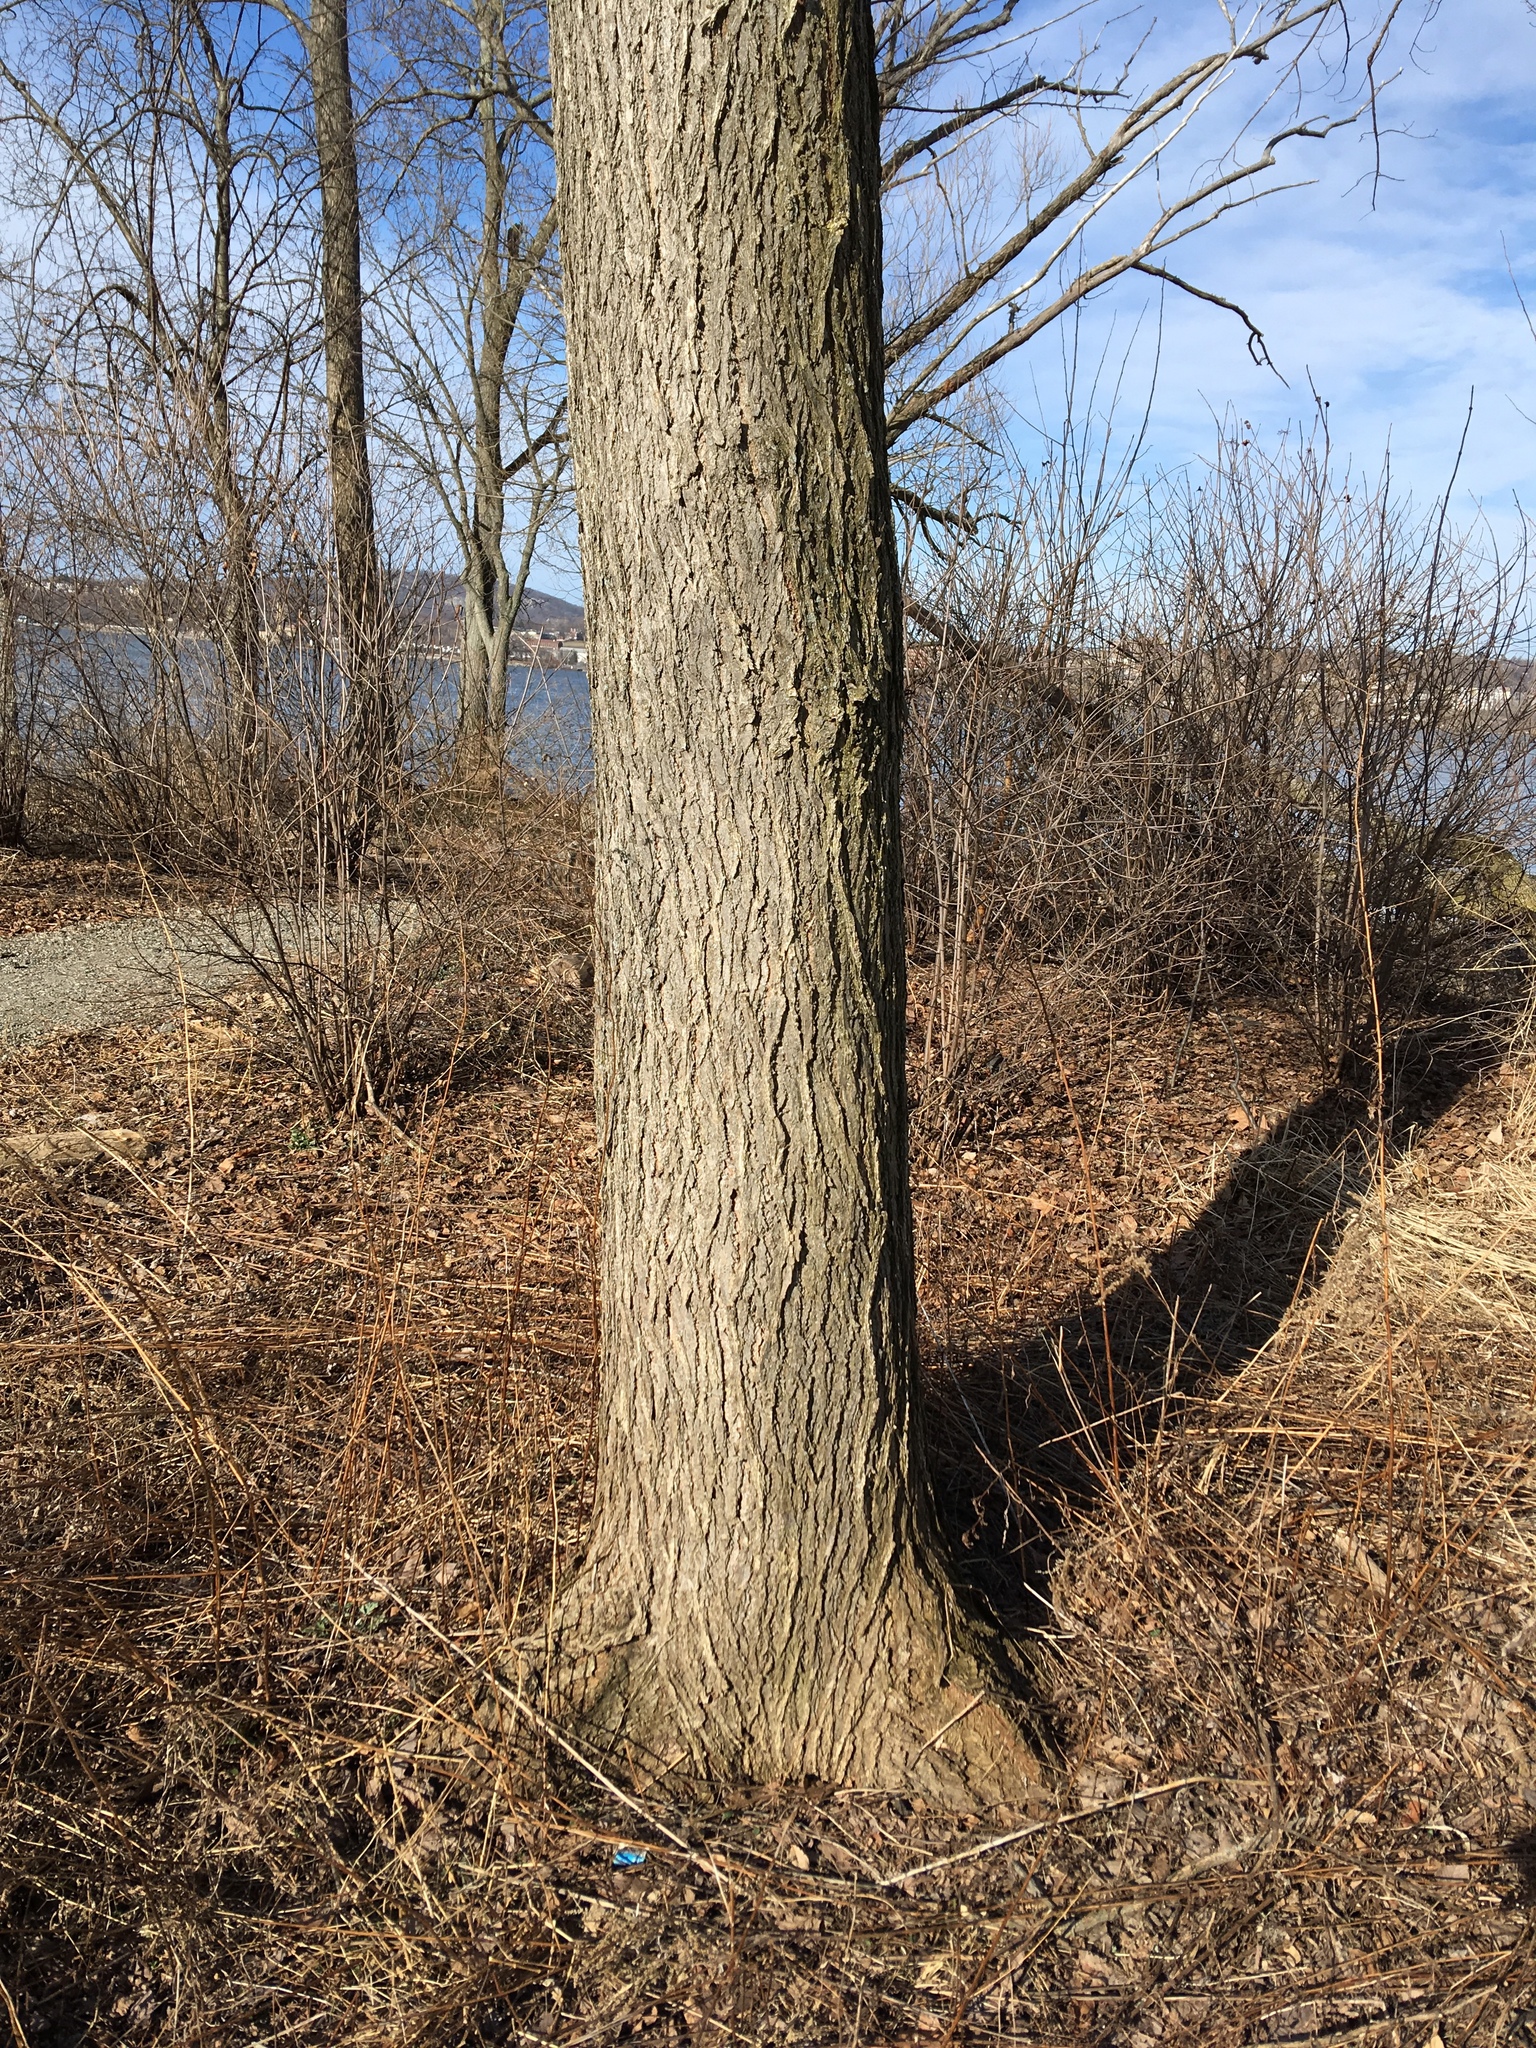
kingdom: Plantae
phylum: Tracheophyta
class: Magnoliopsida
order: Rosales
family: Ulmaceae
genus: Ulmus
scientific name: Ulmus americana
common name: American elm
